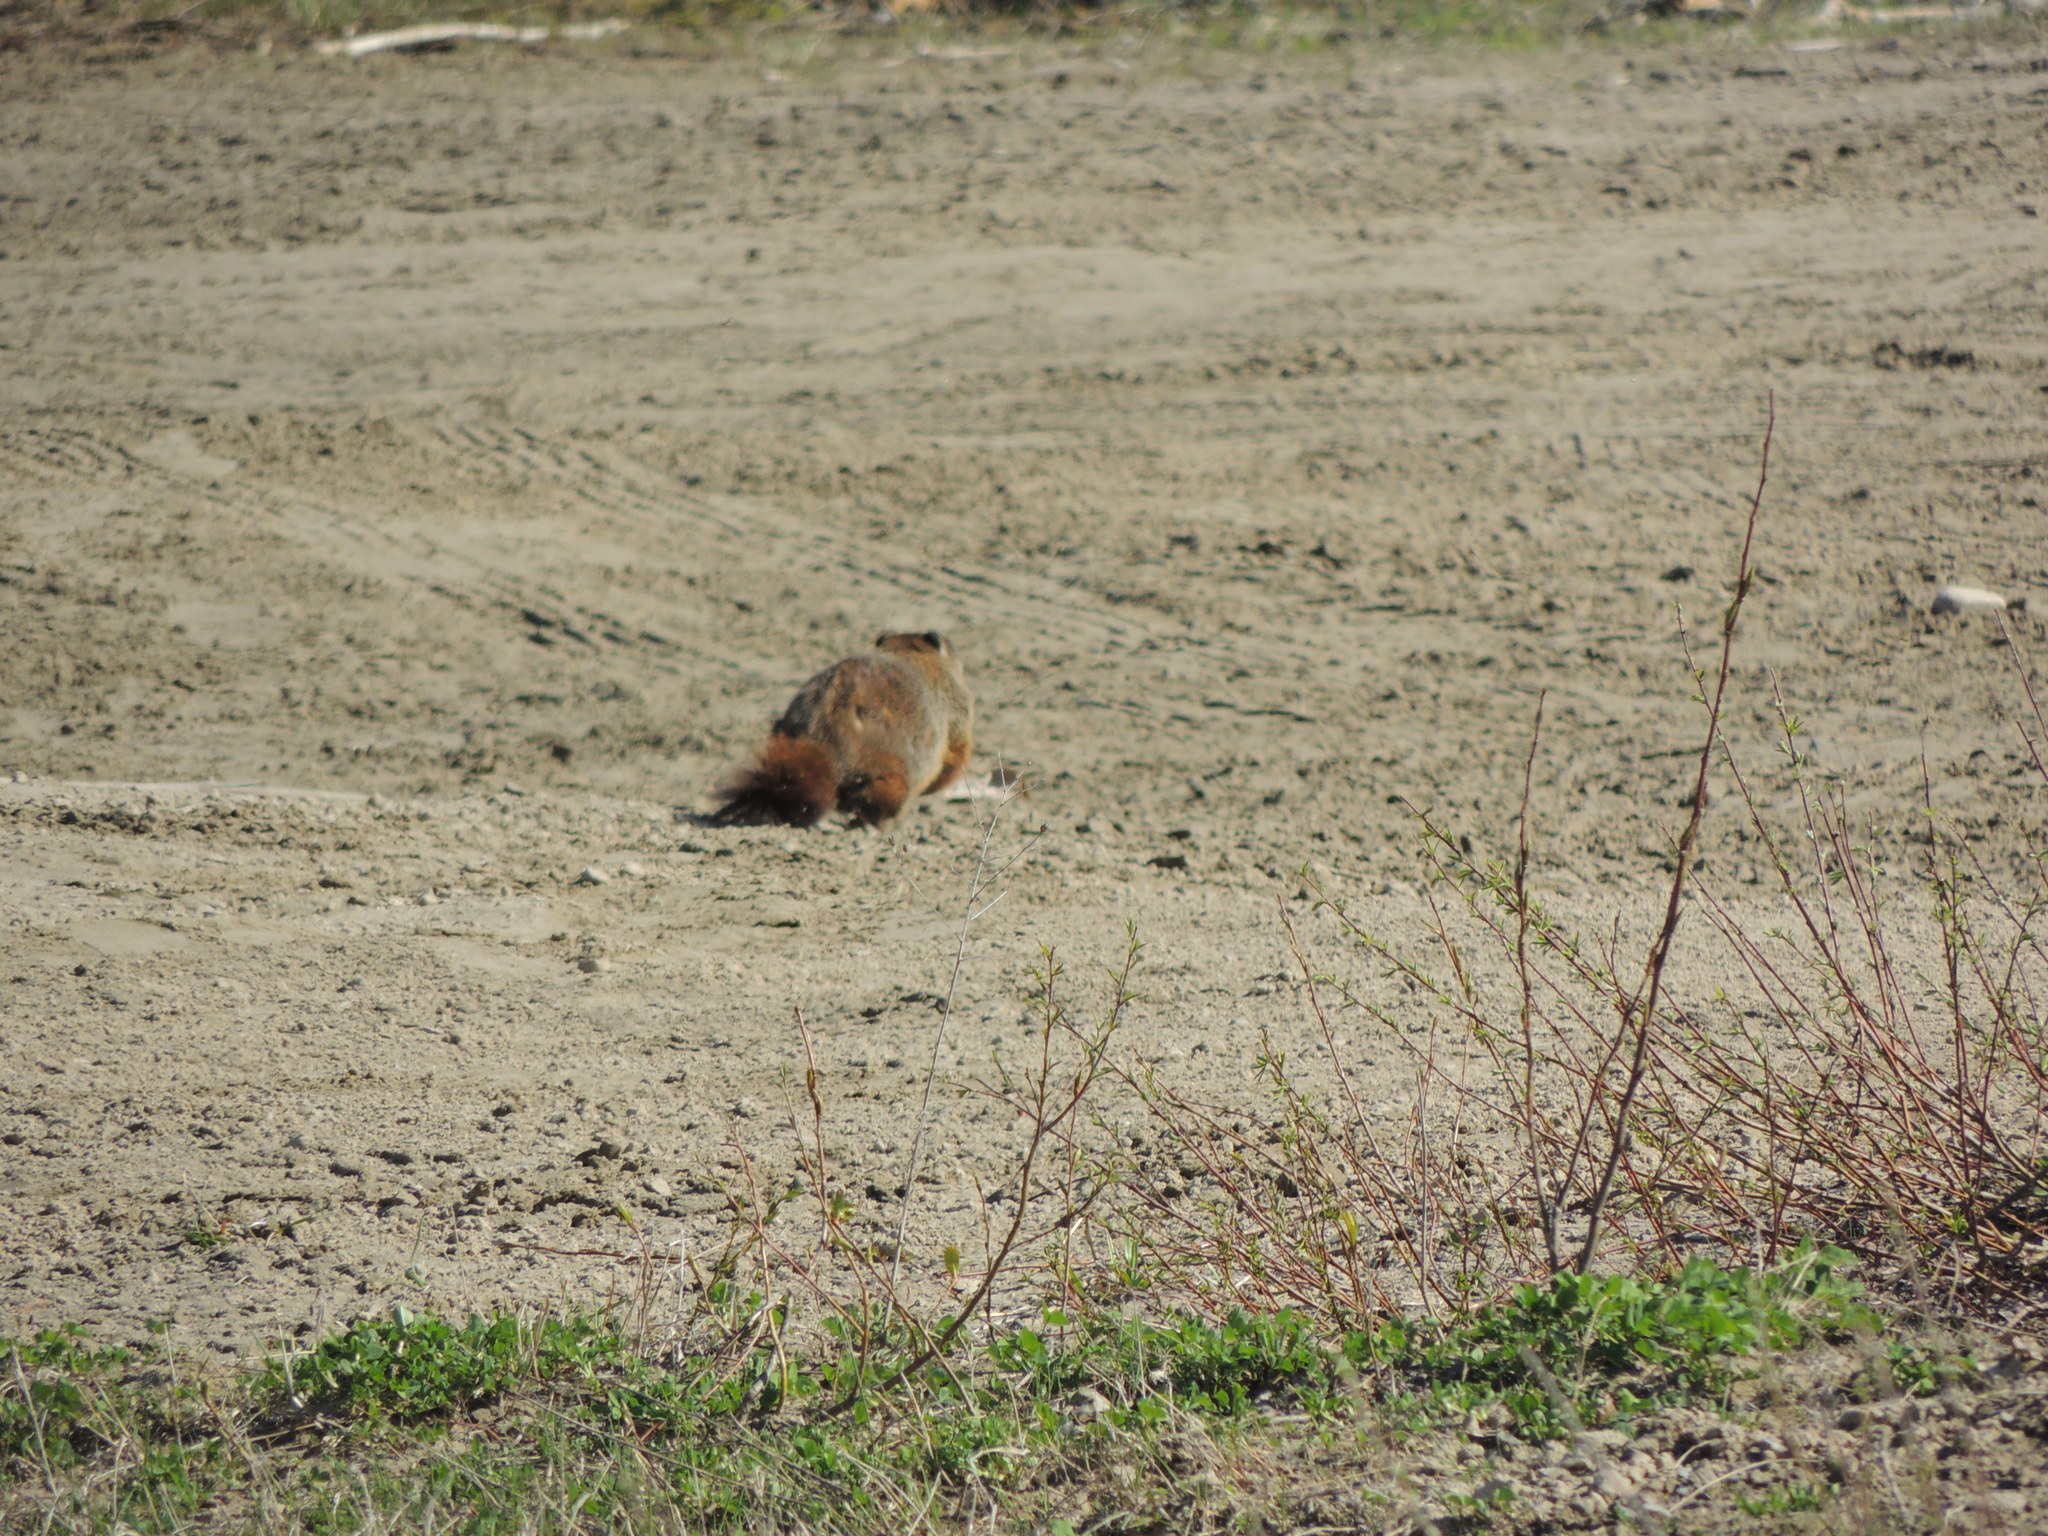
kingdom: Animalia
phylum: Chordata
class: Mammalia
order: Rodentia
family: Sciuridae
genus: Marmota
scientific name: Marmota monax
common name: Groundhog
